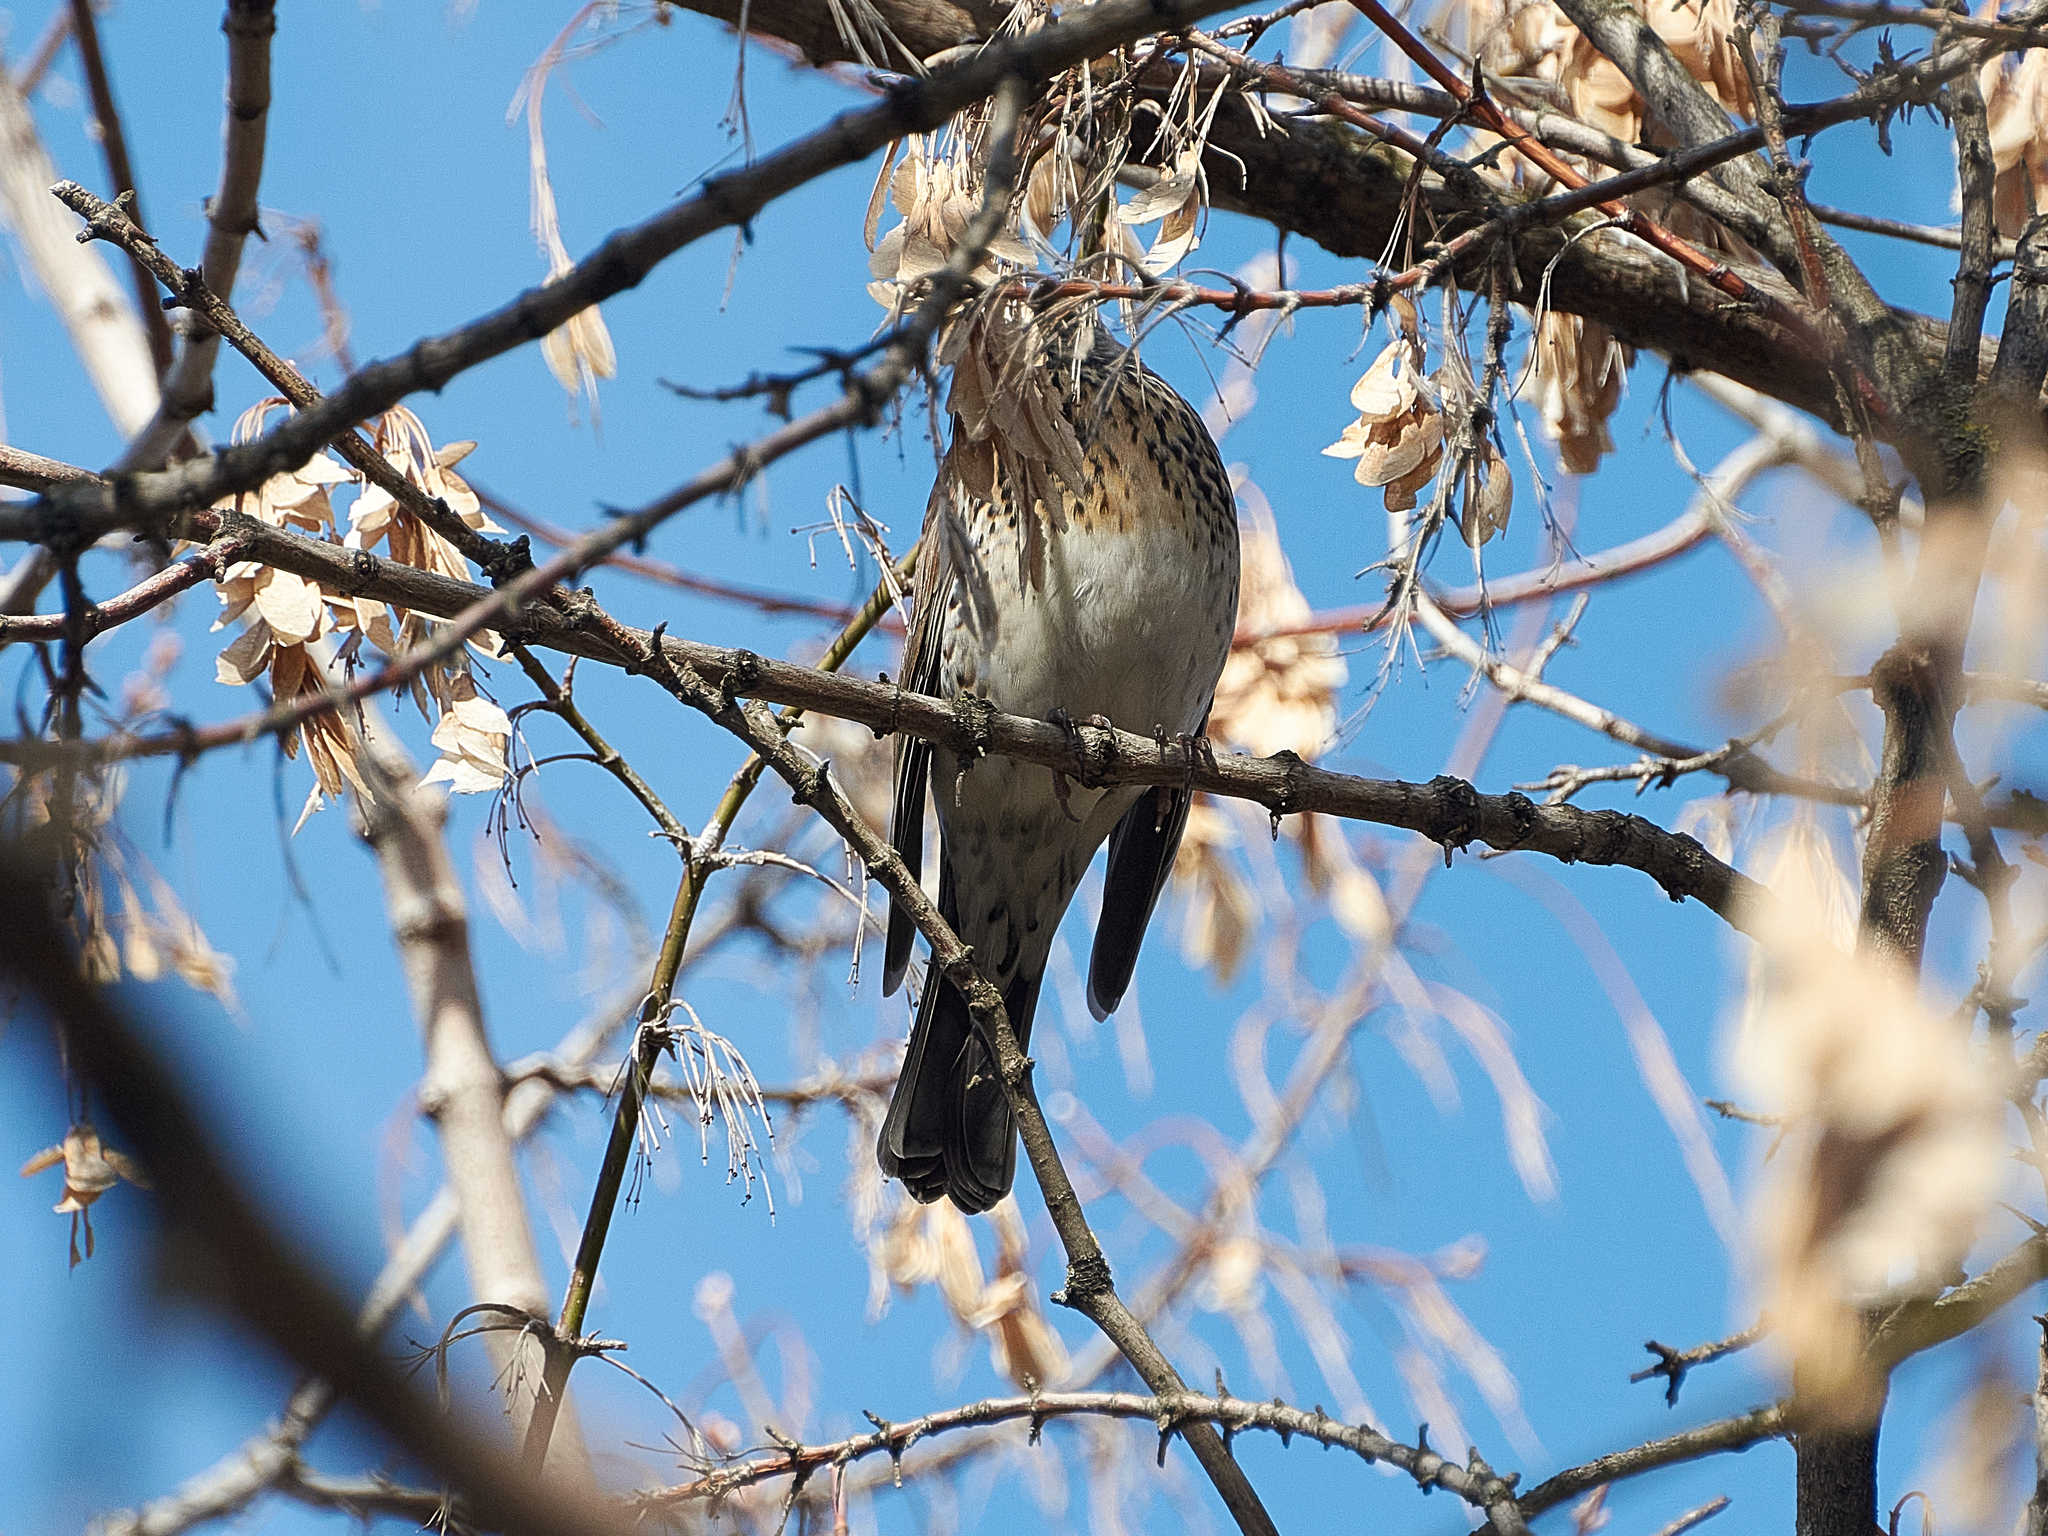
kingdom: Animalia
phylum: Chordata
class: Aves
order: Passeriformes
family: Turdidae
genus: Turdus
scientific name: Turdus pilaris
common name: Fieldfare
